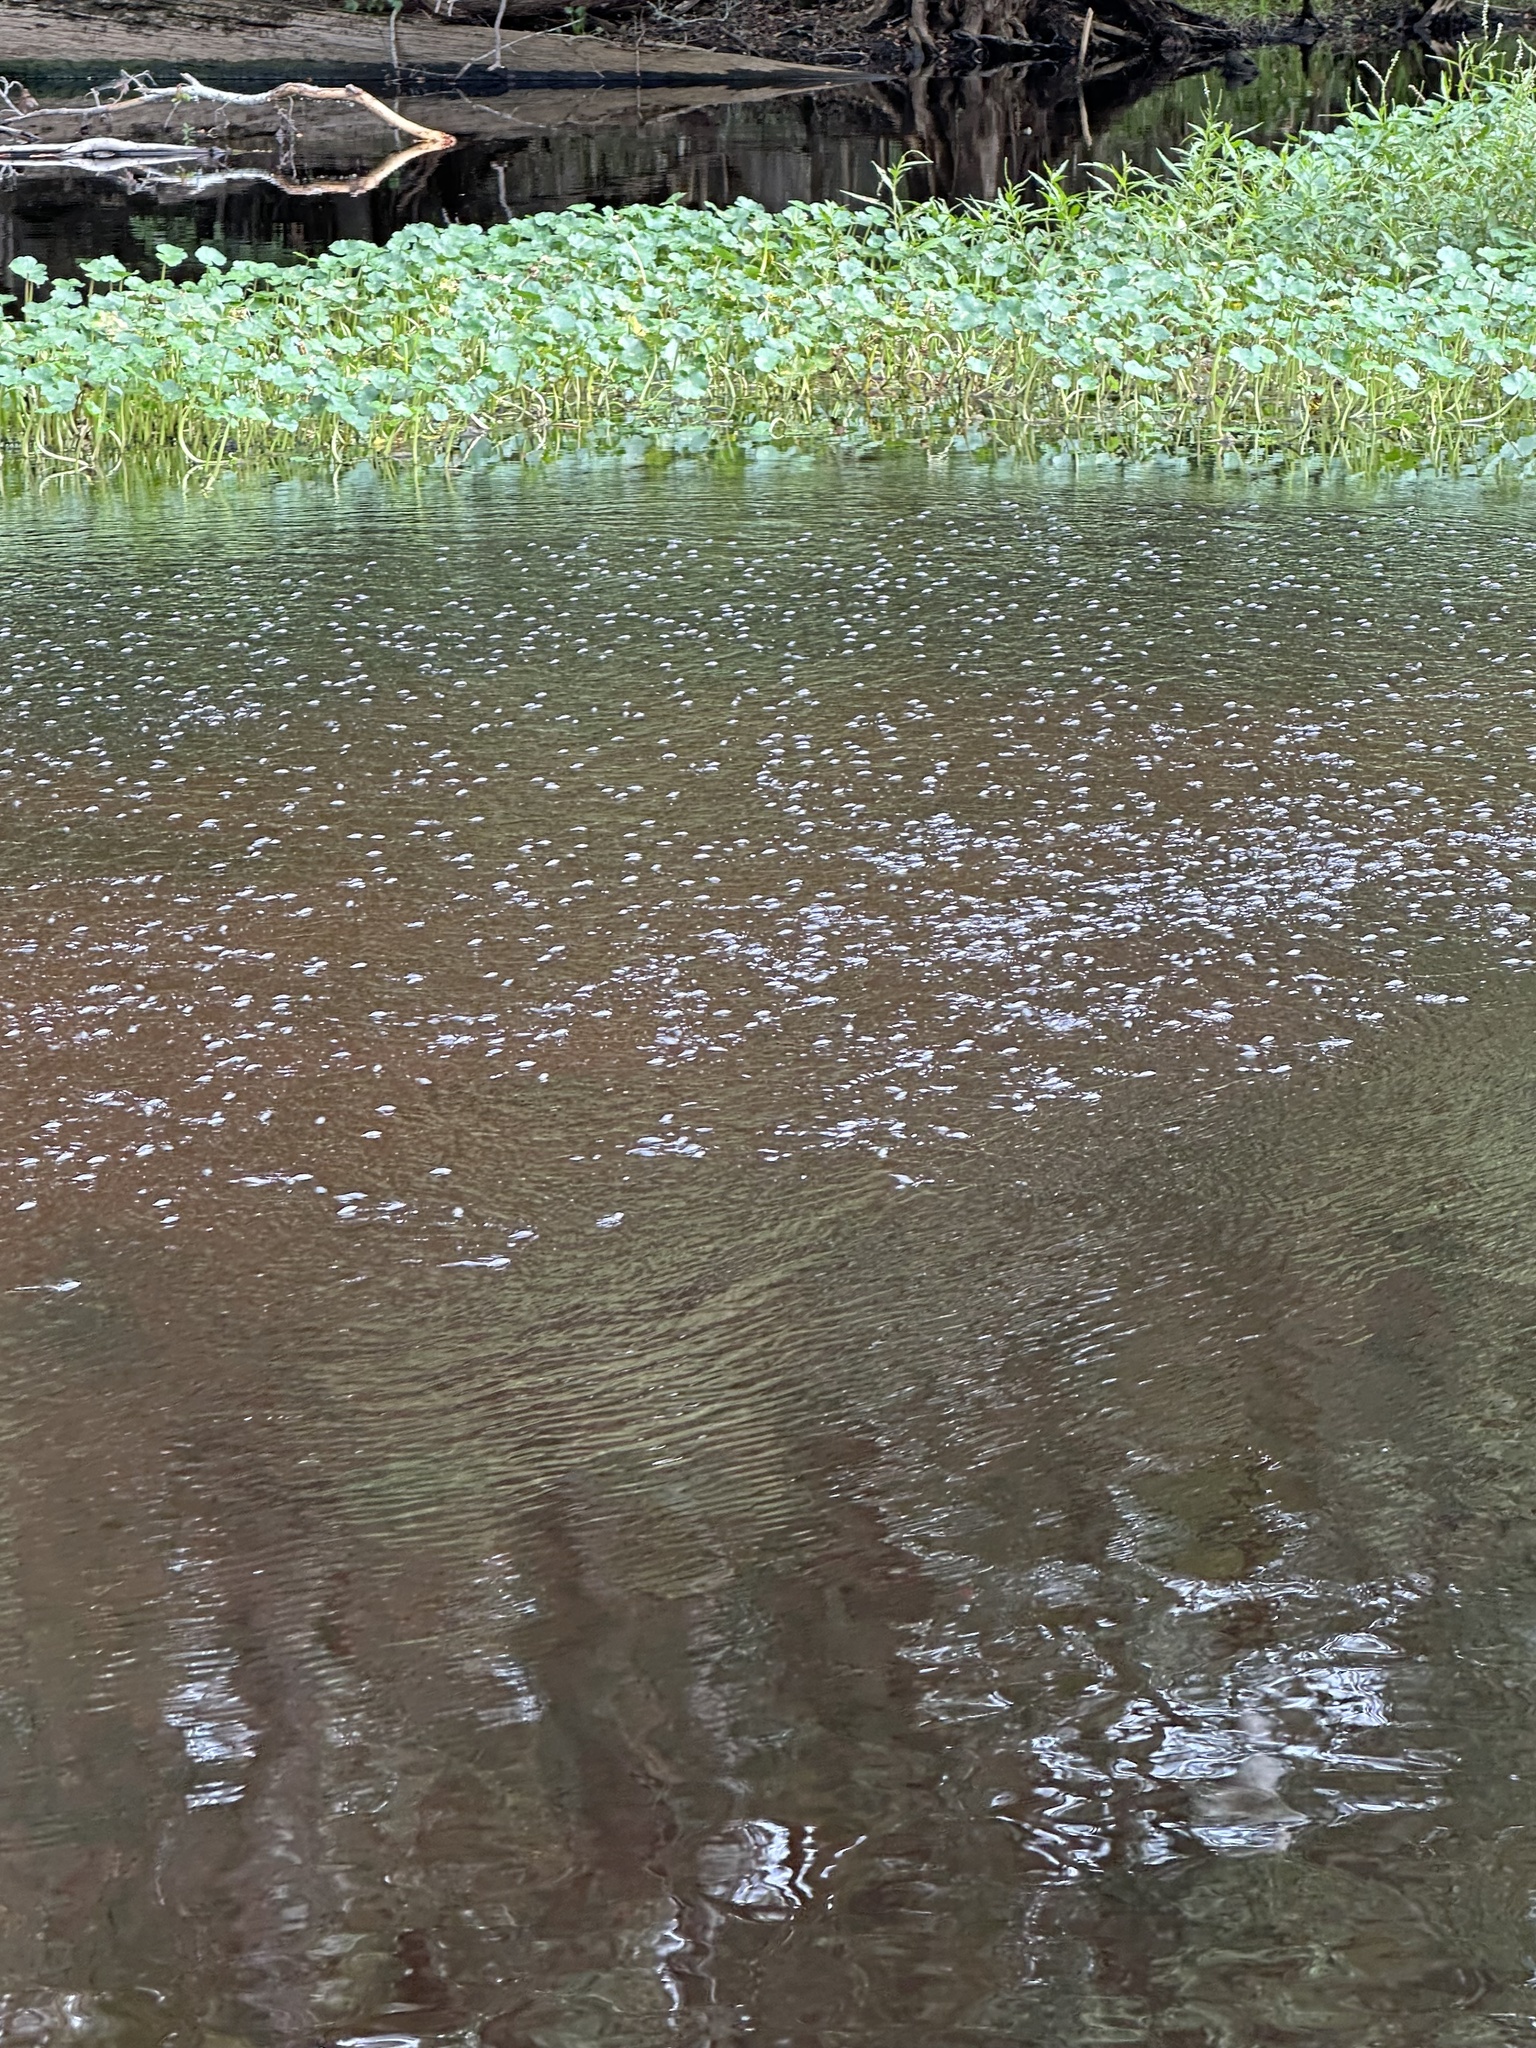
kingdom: Animalia
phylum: Arthropoda
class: Insecta
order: Coleoptera
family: Gyrinidae
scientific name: Gyrinidae
